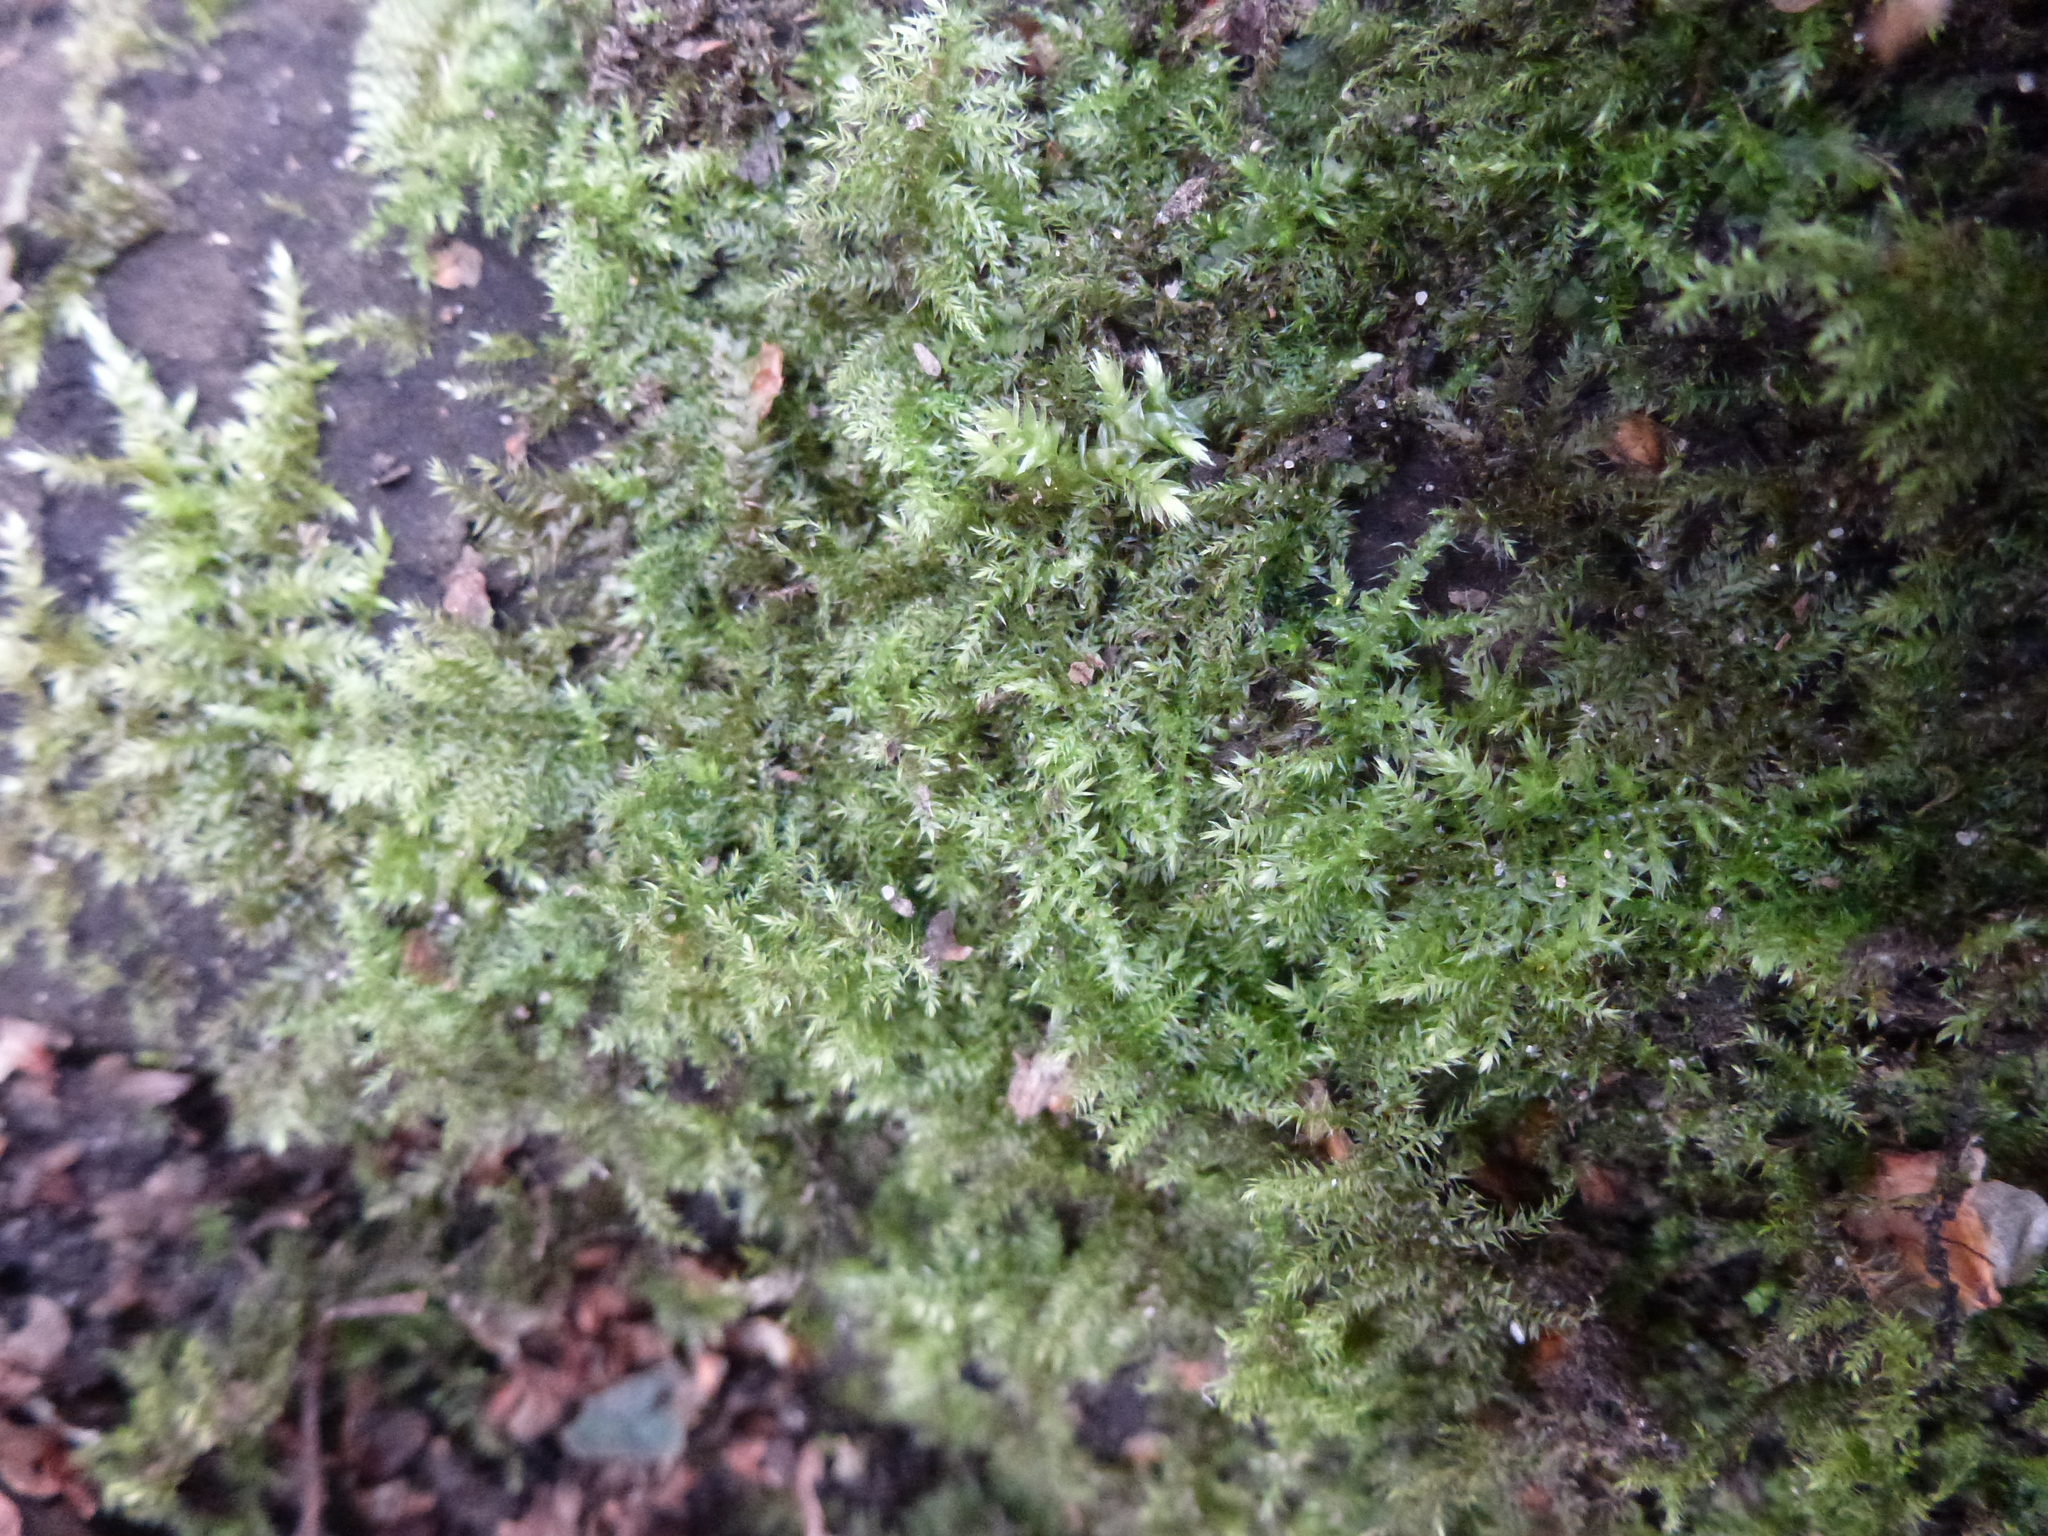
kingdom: Plantae
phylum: Bryophyta
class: Bryopsida
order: Hypnales
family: Brachytheciaceae
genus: Kindbergia
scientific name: Kindbergia praelonga
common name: Slender beaked moss
